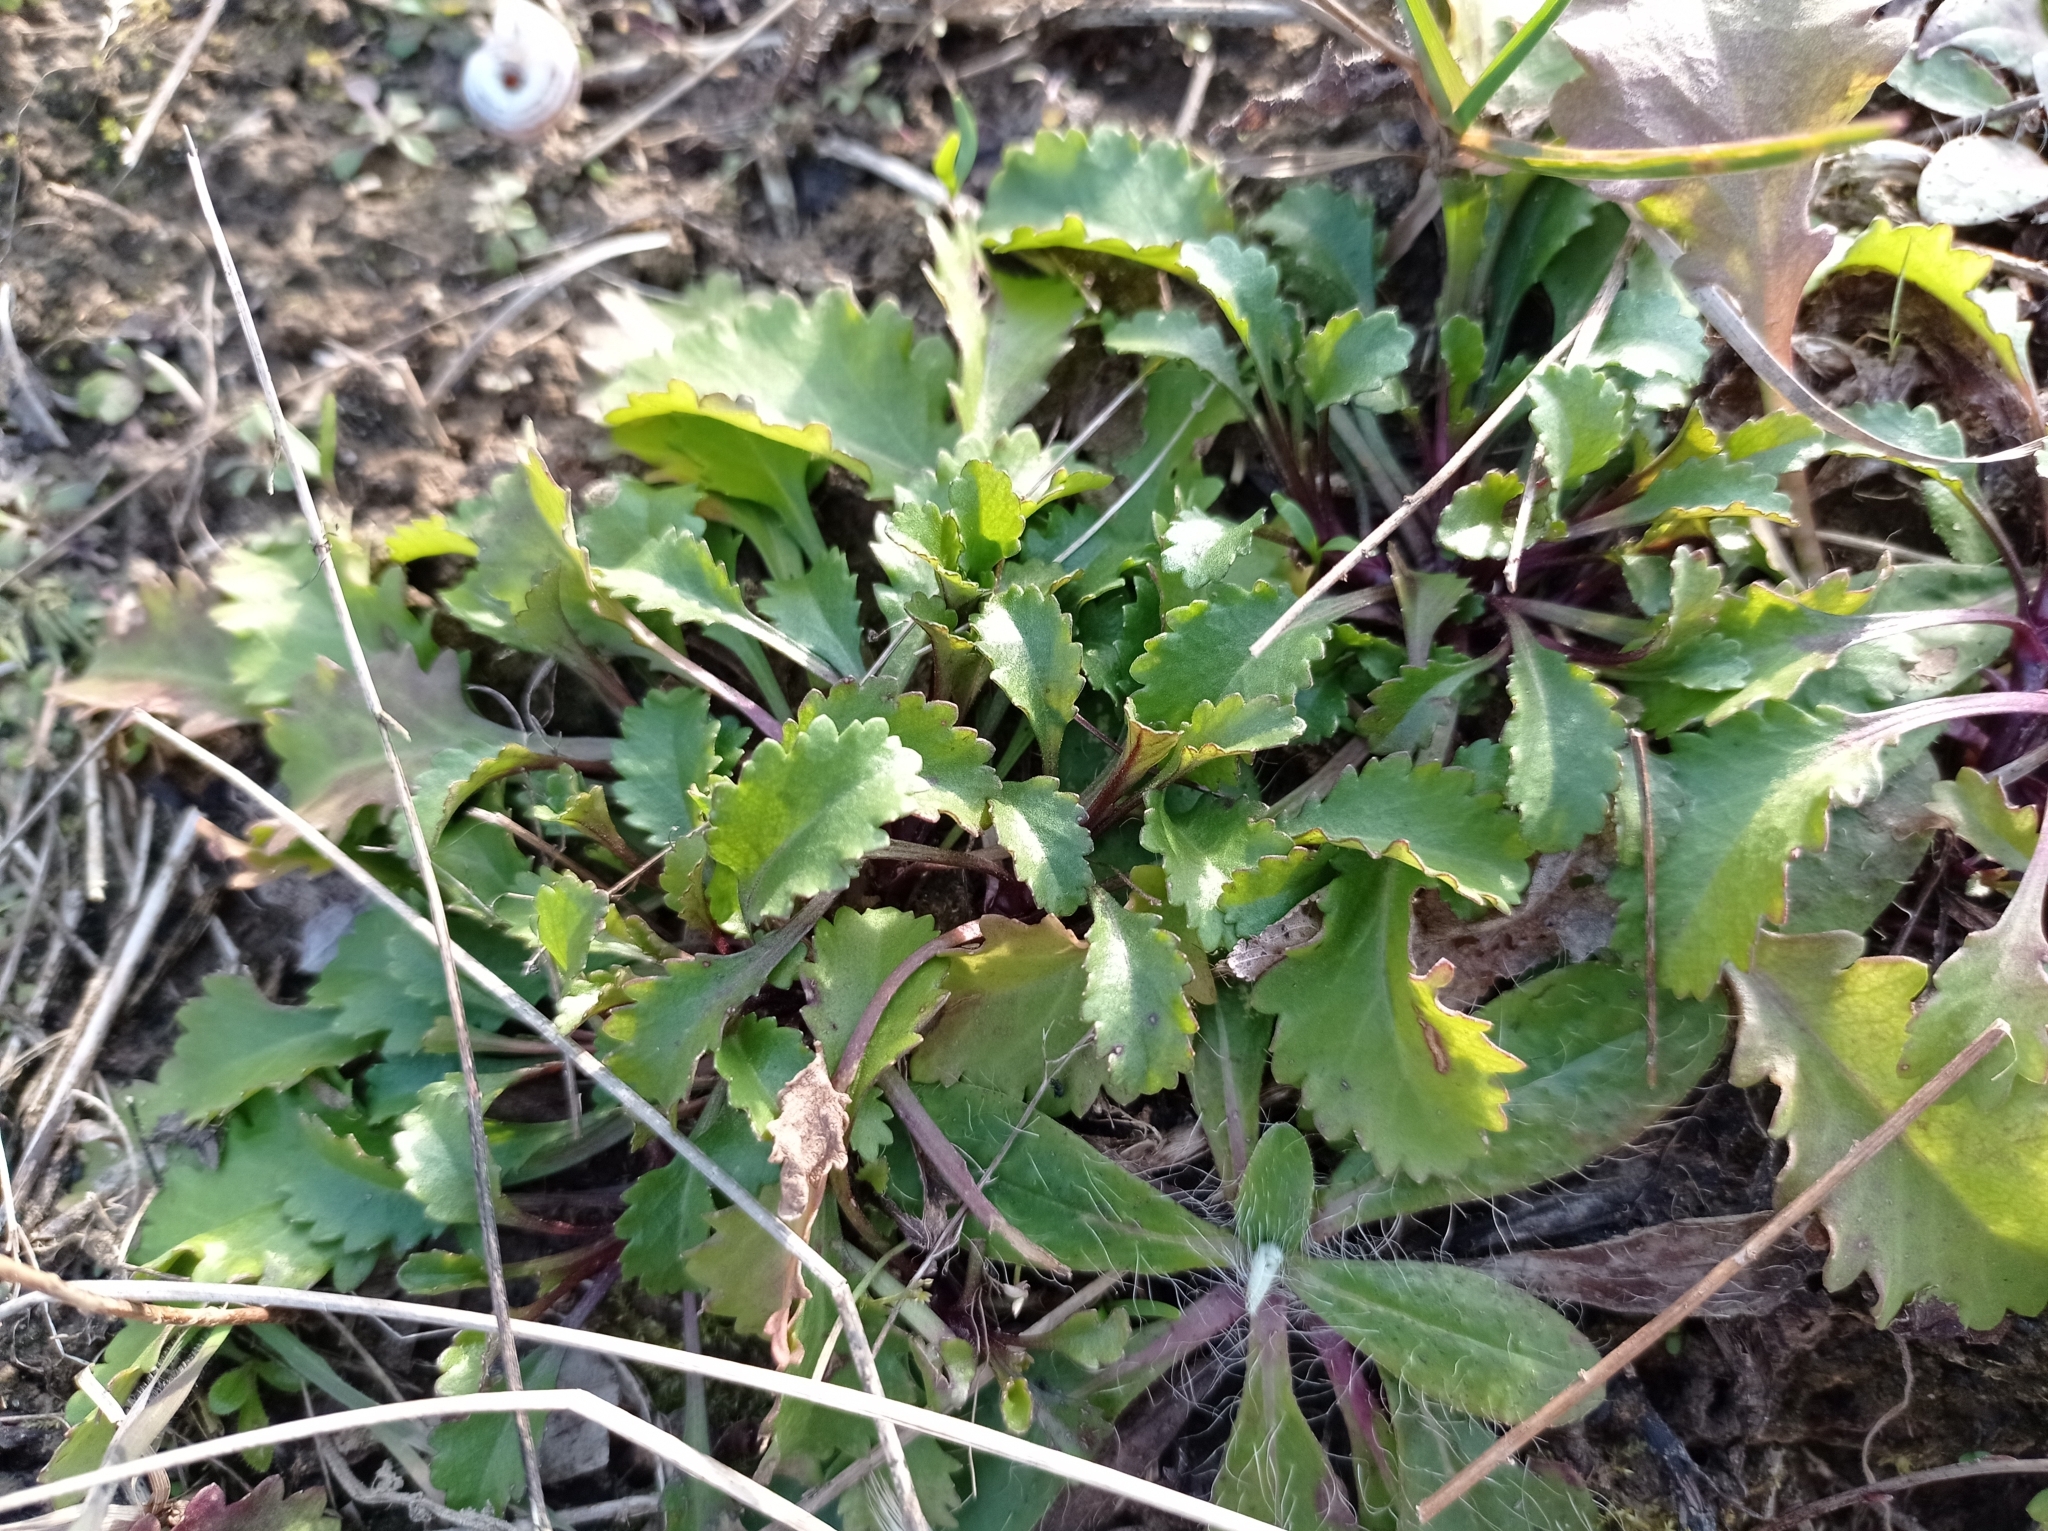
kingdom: Plantae
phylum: Tracheophyta
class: Magnoliopsida
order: Asterales
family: Asteraceae
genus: Leucanthemum
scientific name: Leucanthemum vulgare
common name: Oxeye daisy
